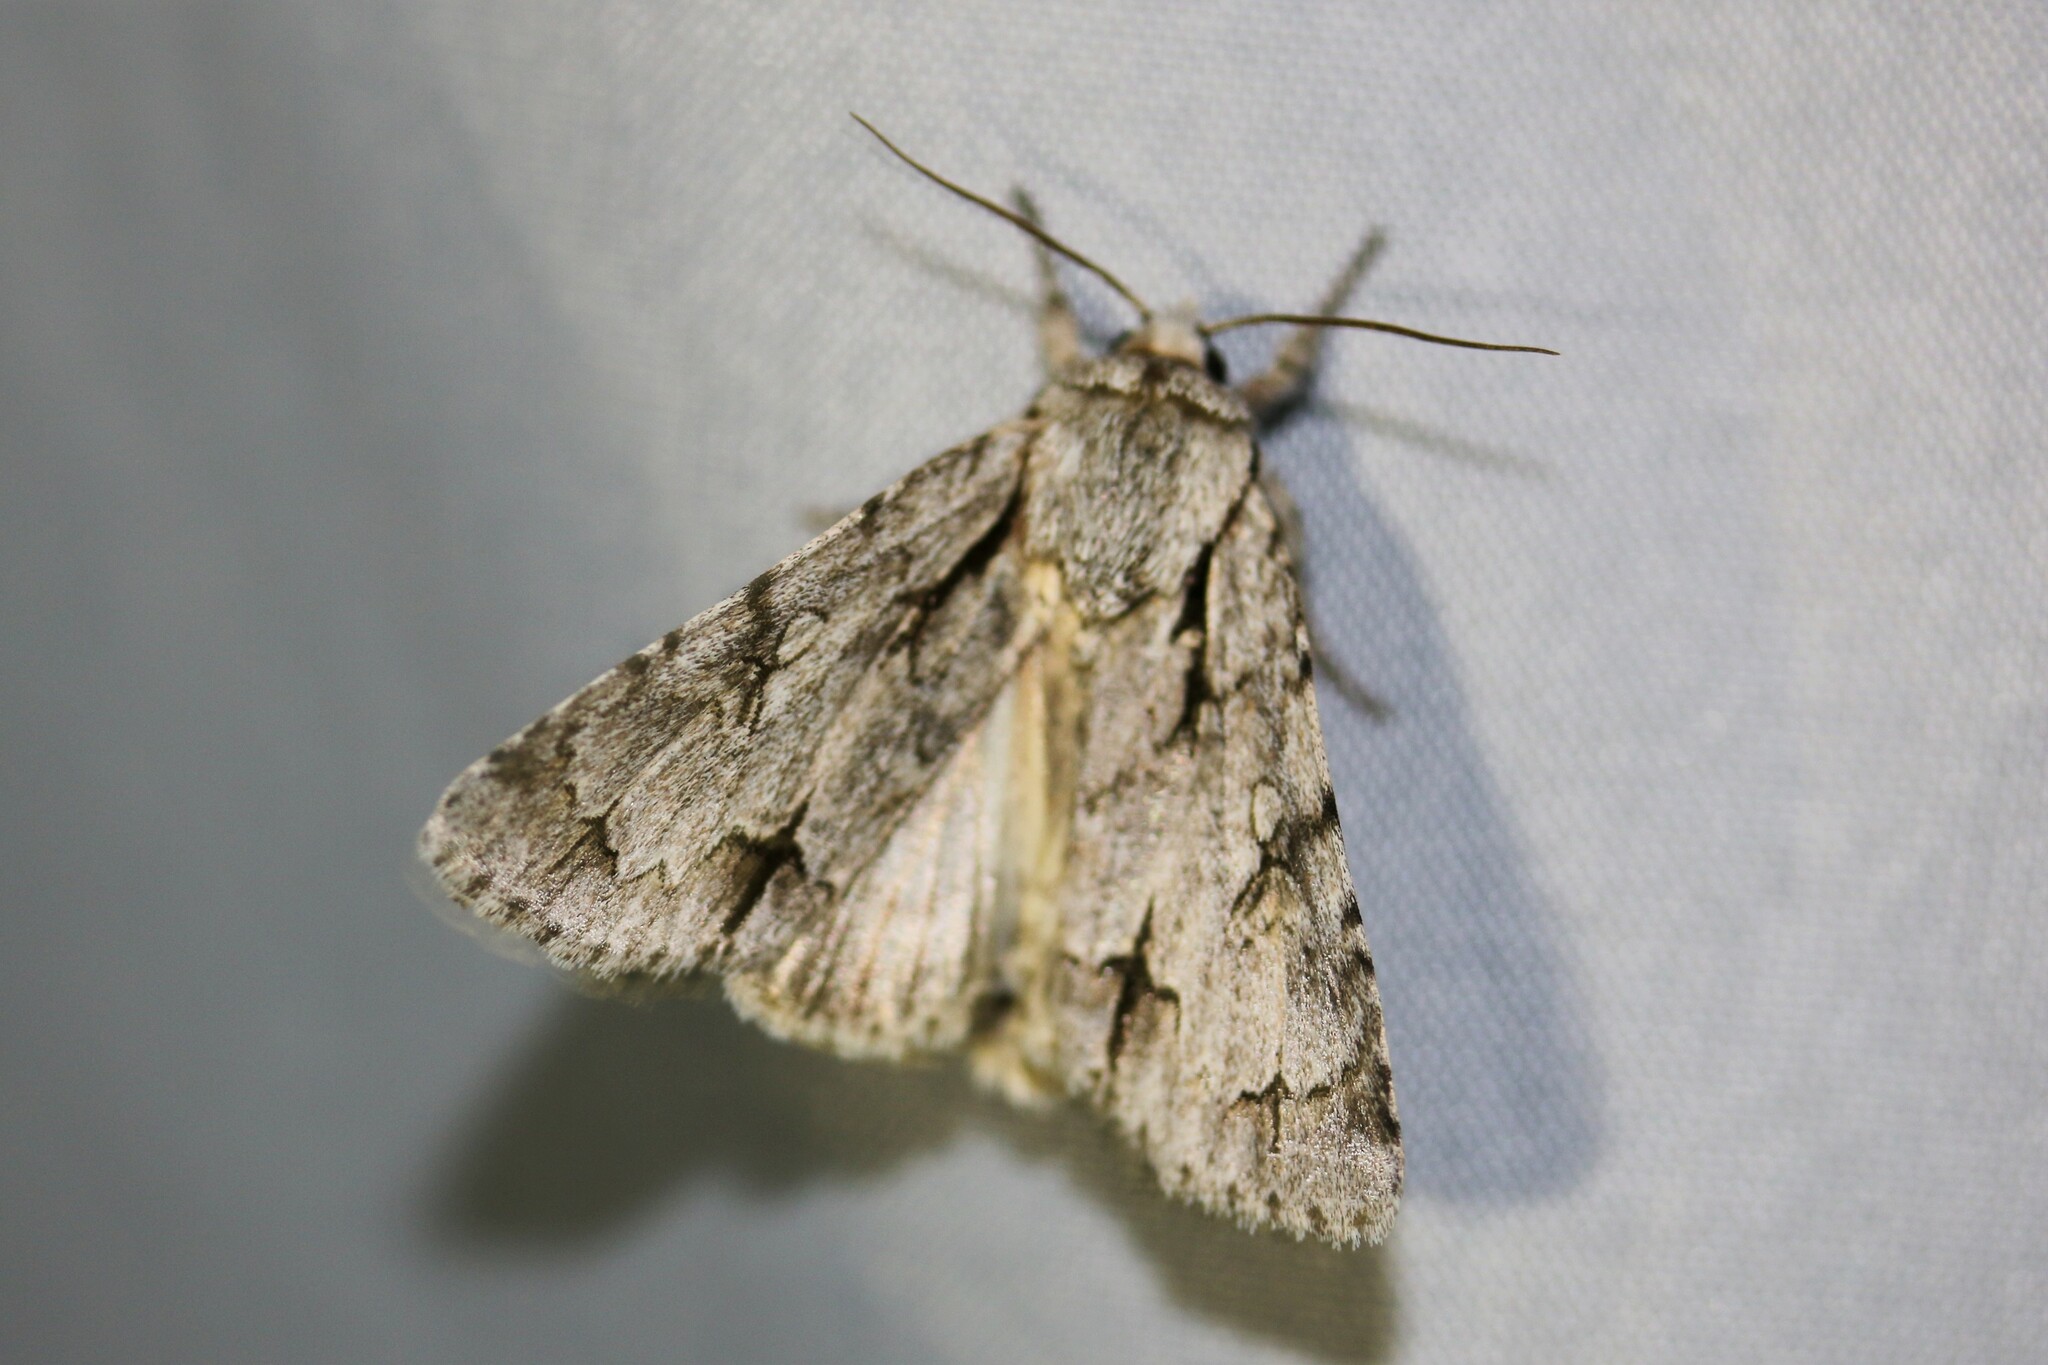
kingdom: Animalia
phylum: Arthropoda
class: Insecta
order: Lepidoptera
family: Noctuidae
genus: Acronicta
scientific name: Acronicta
